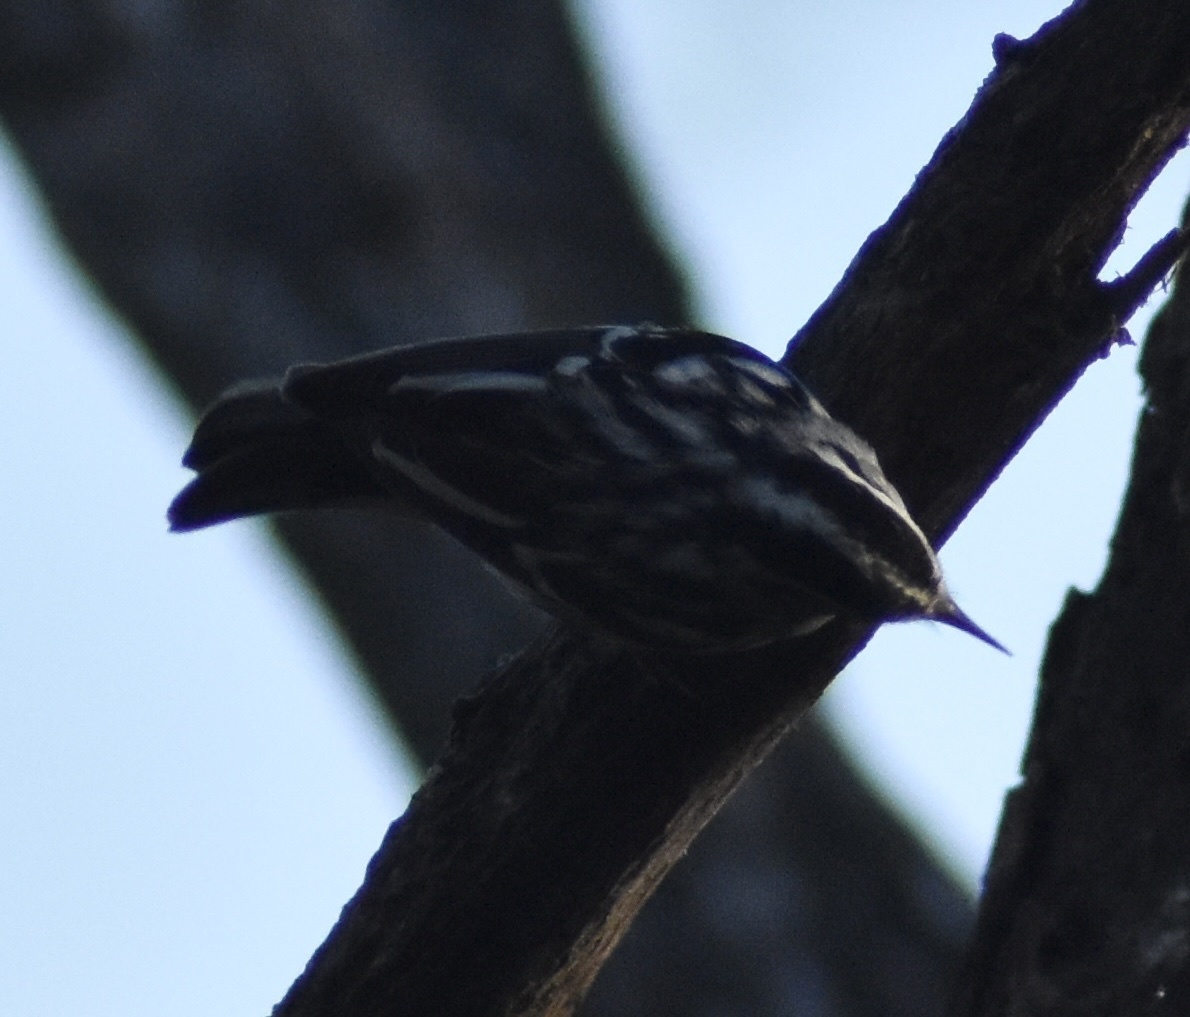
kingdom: Animalia
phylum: Chordata
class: Aves
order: Passeriformes
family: Parulidae
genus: Mniotilta
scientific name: Mniotilta varia
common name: Black-and-white warbler
